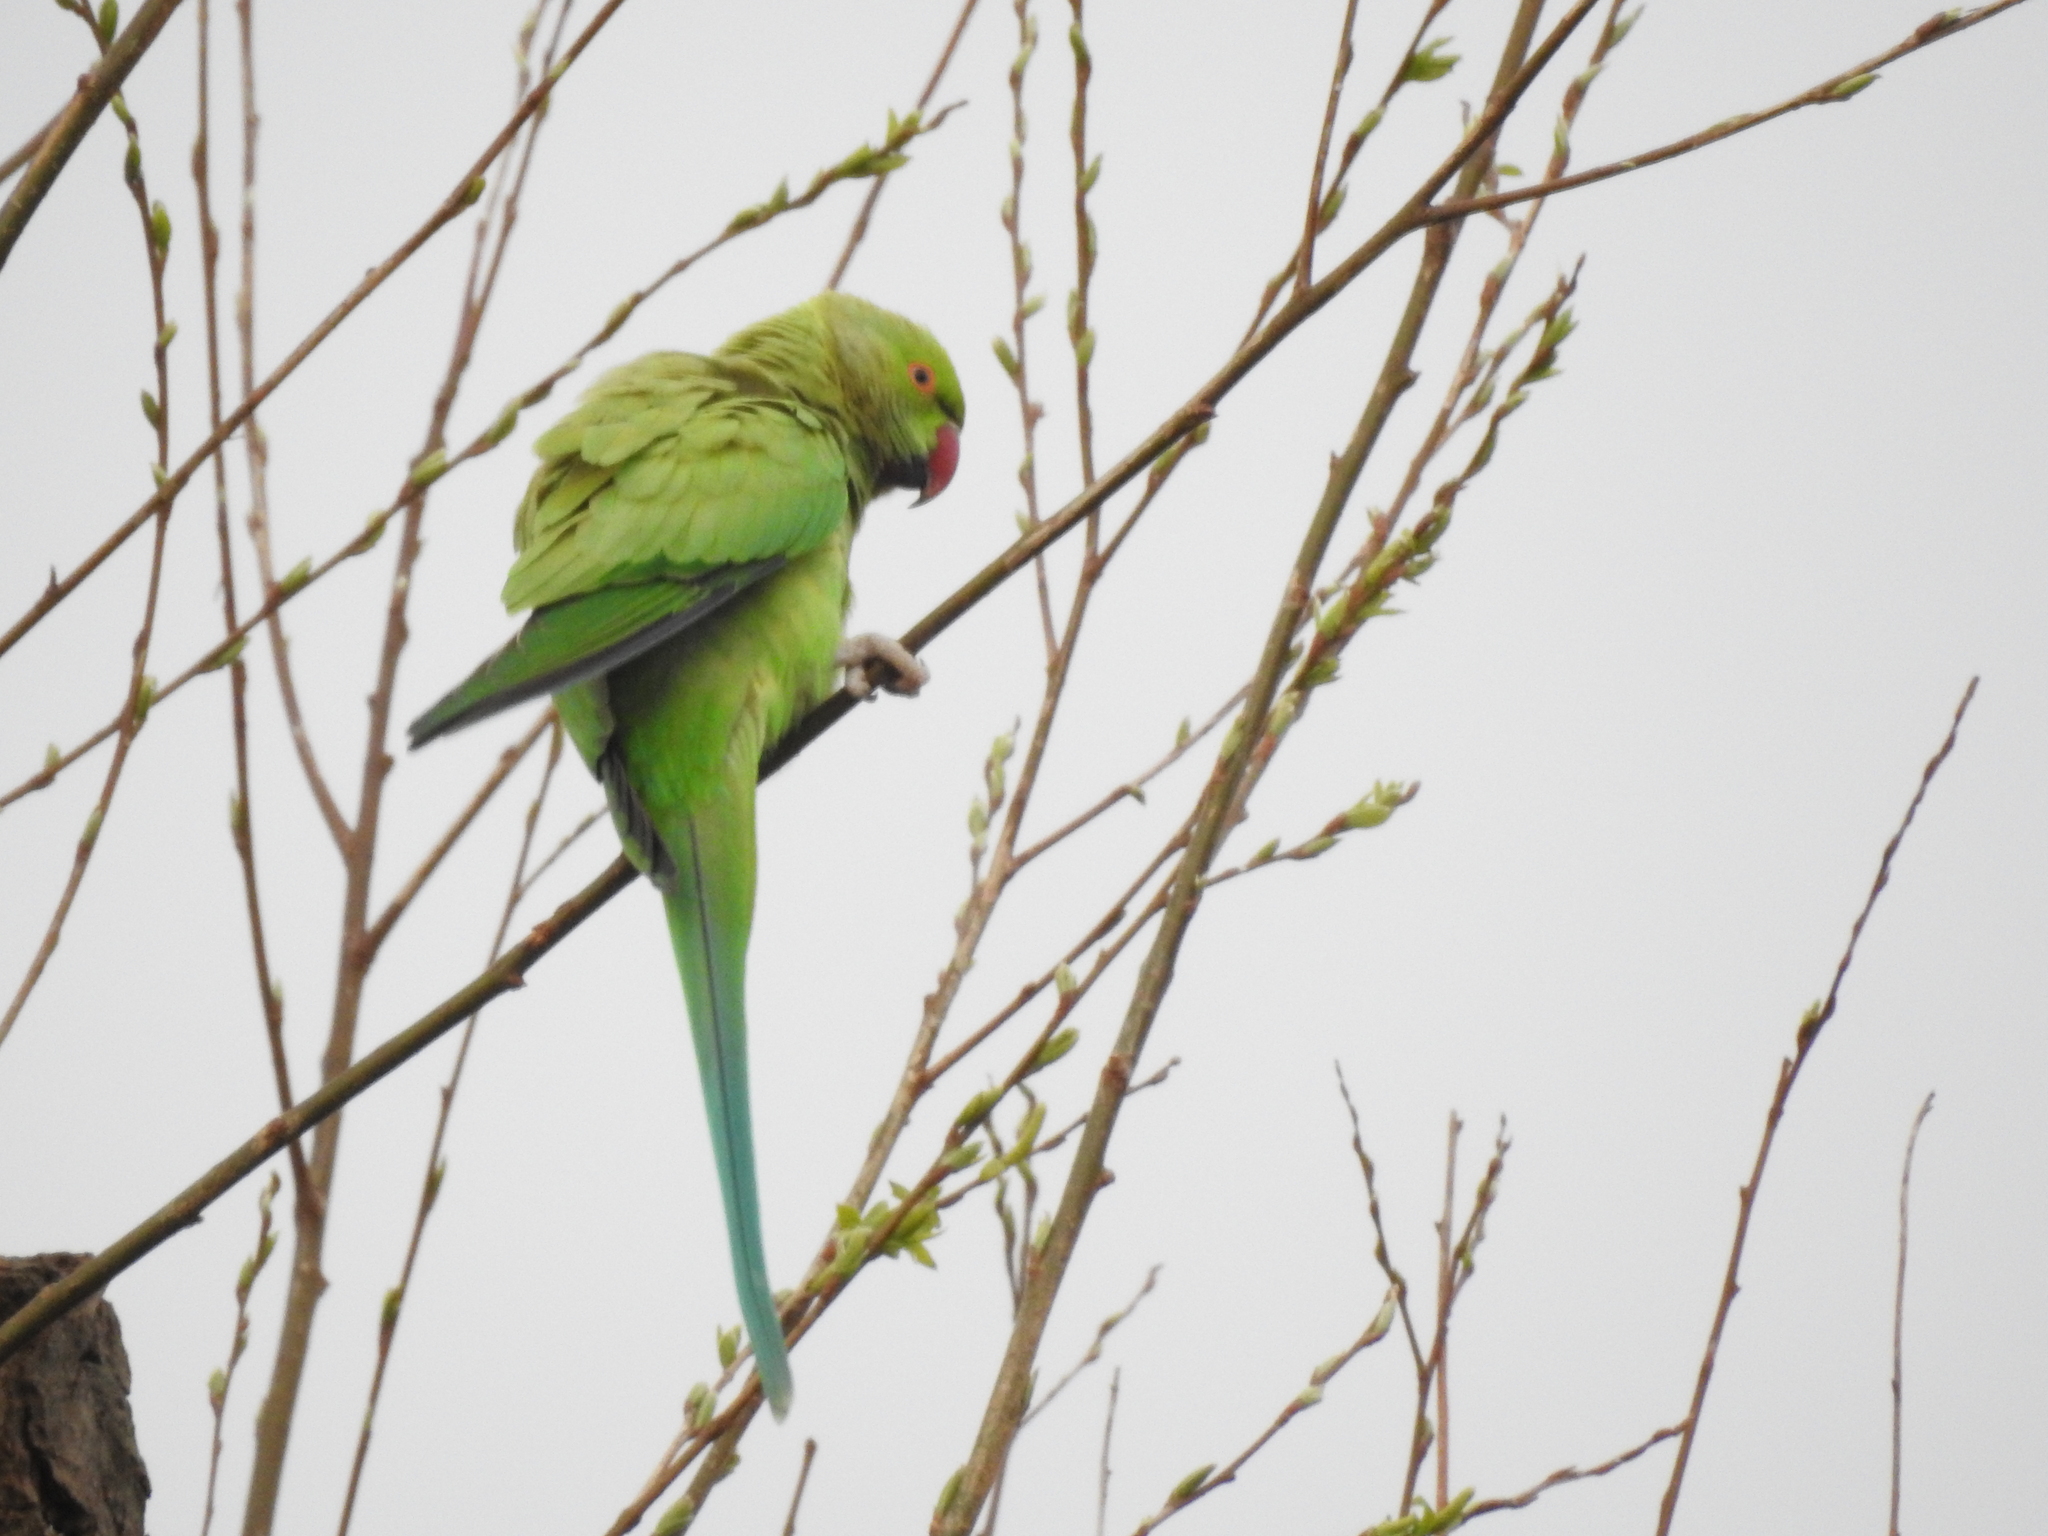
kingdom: Animalia
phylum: Chordata
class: Aves
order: Psittaciformes
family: Psittacidae
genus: Psittacula
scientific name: Psittacula krameri
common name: Rose-ringed parakeet
